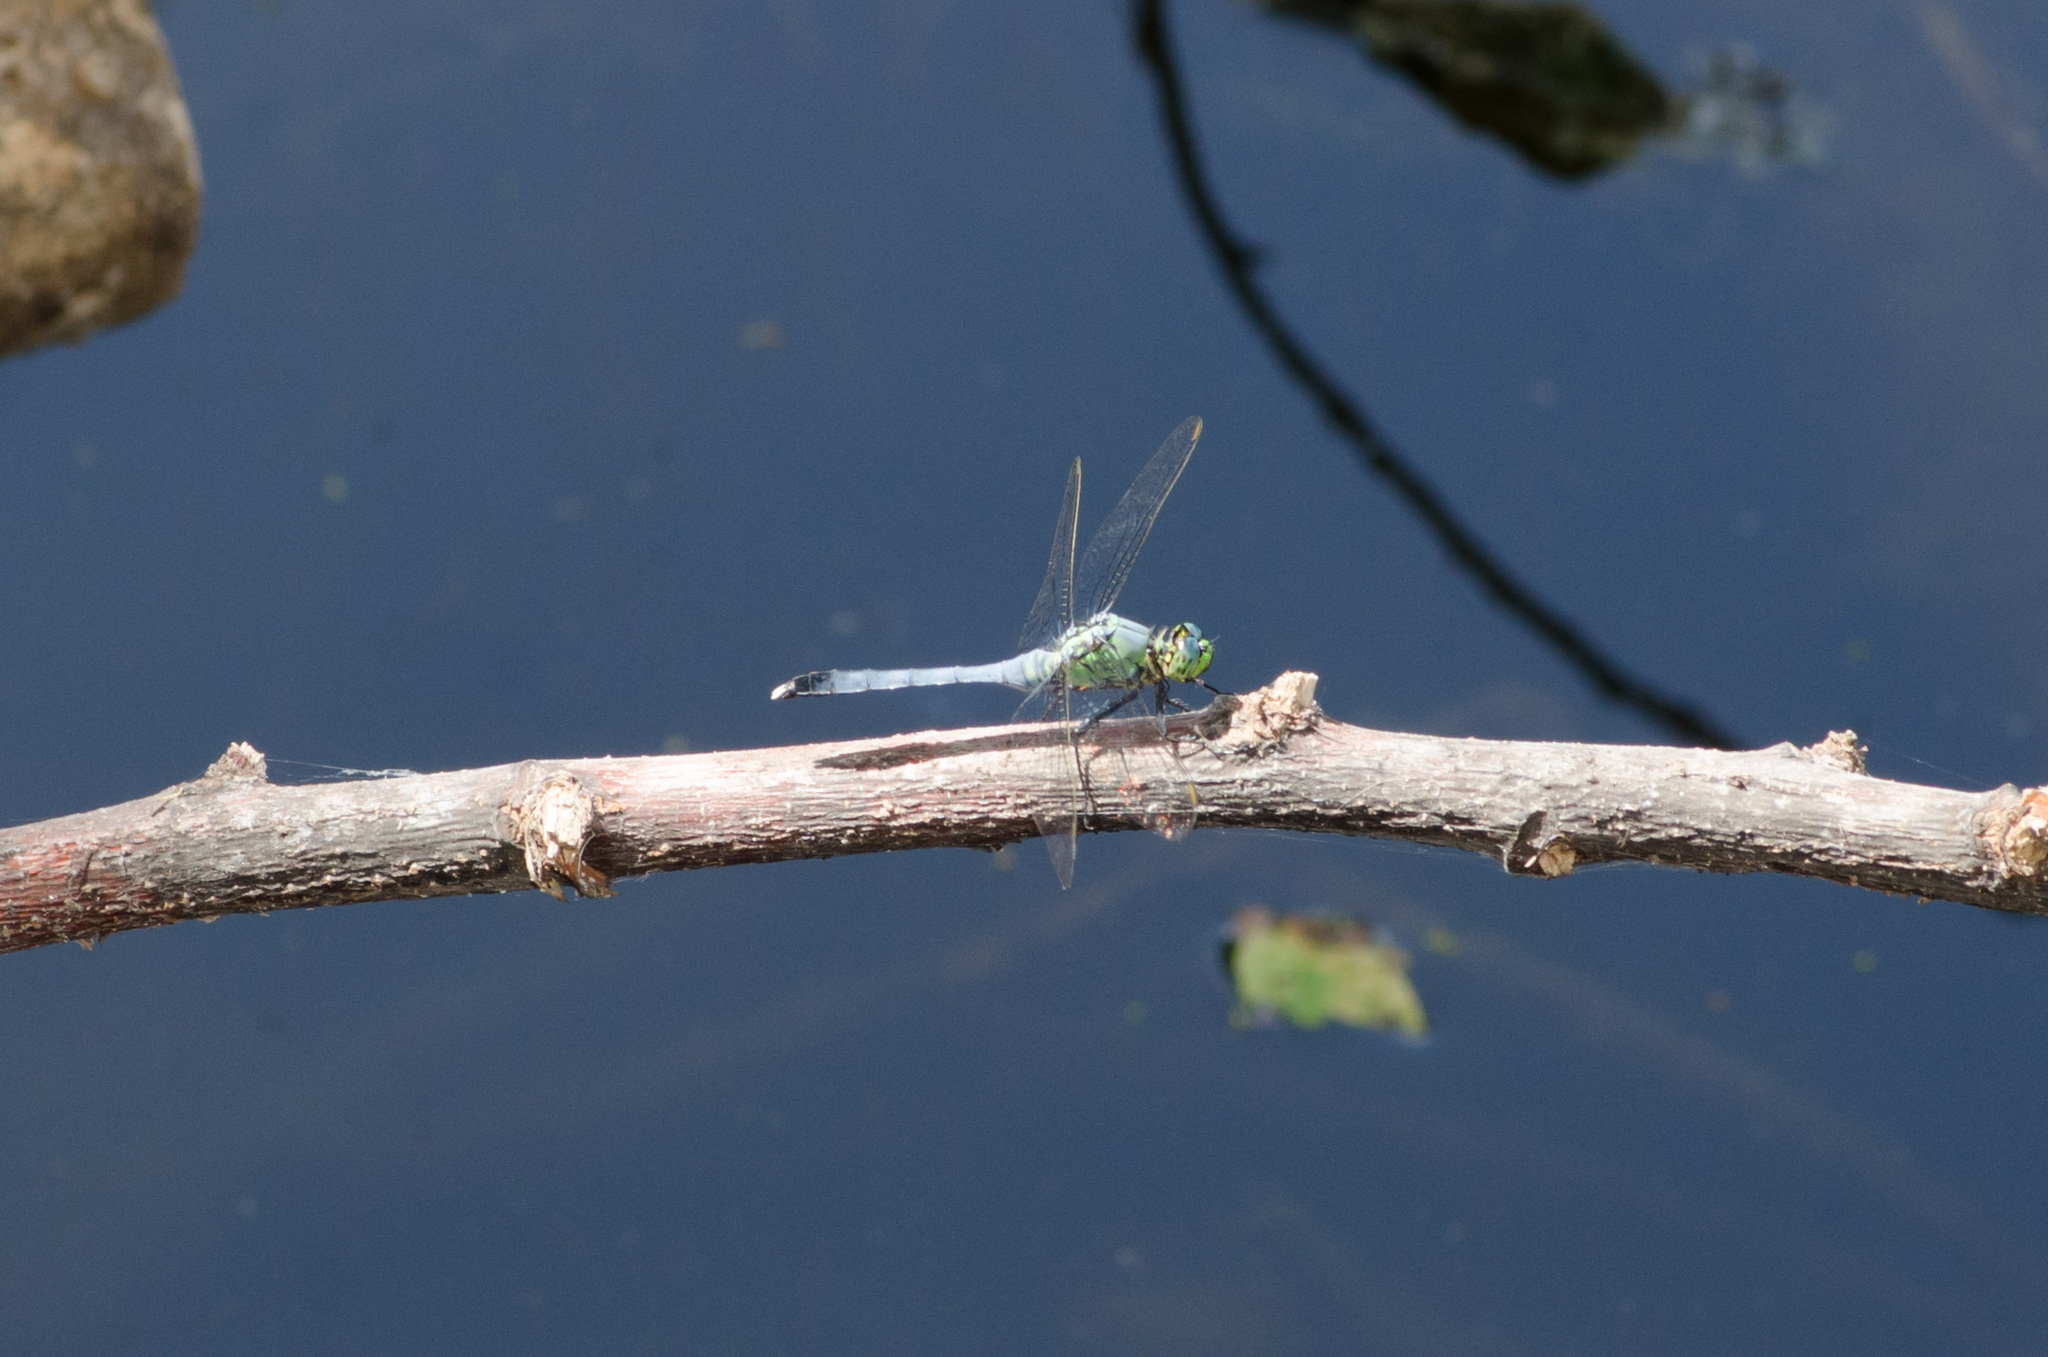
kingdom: Animalia
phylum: Arthropoda
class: Insecta
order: Odonata
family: Libellulidae
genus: Erythemis
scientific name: Erythemis simplicicollis
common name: Eastern pondhawk
